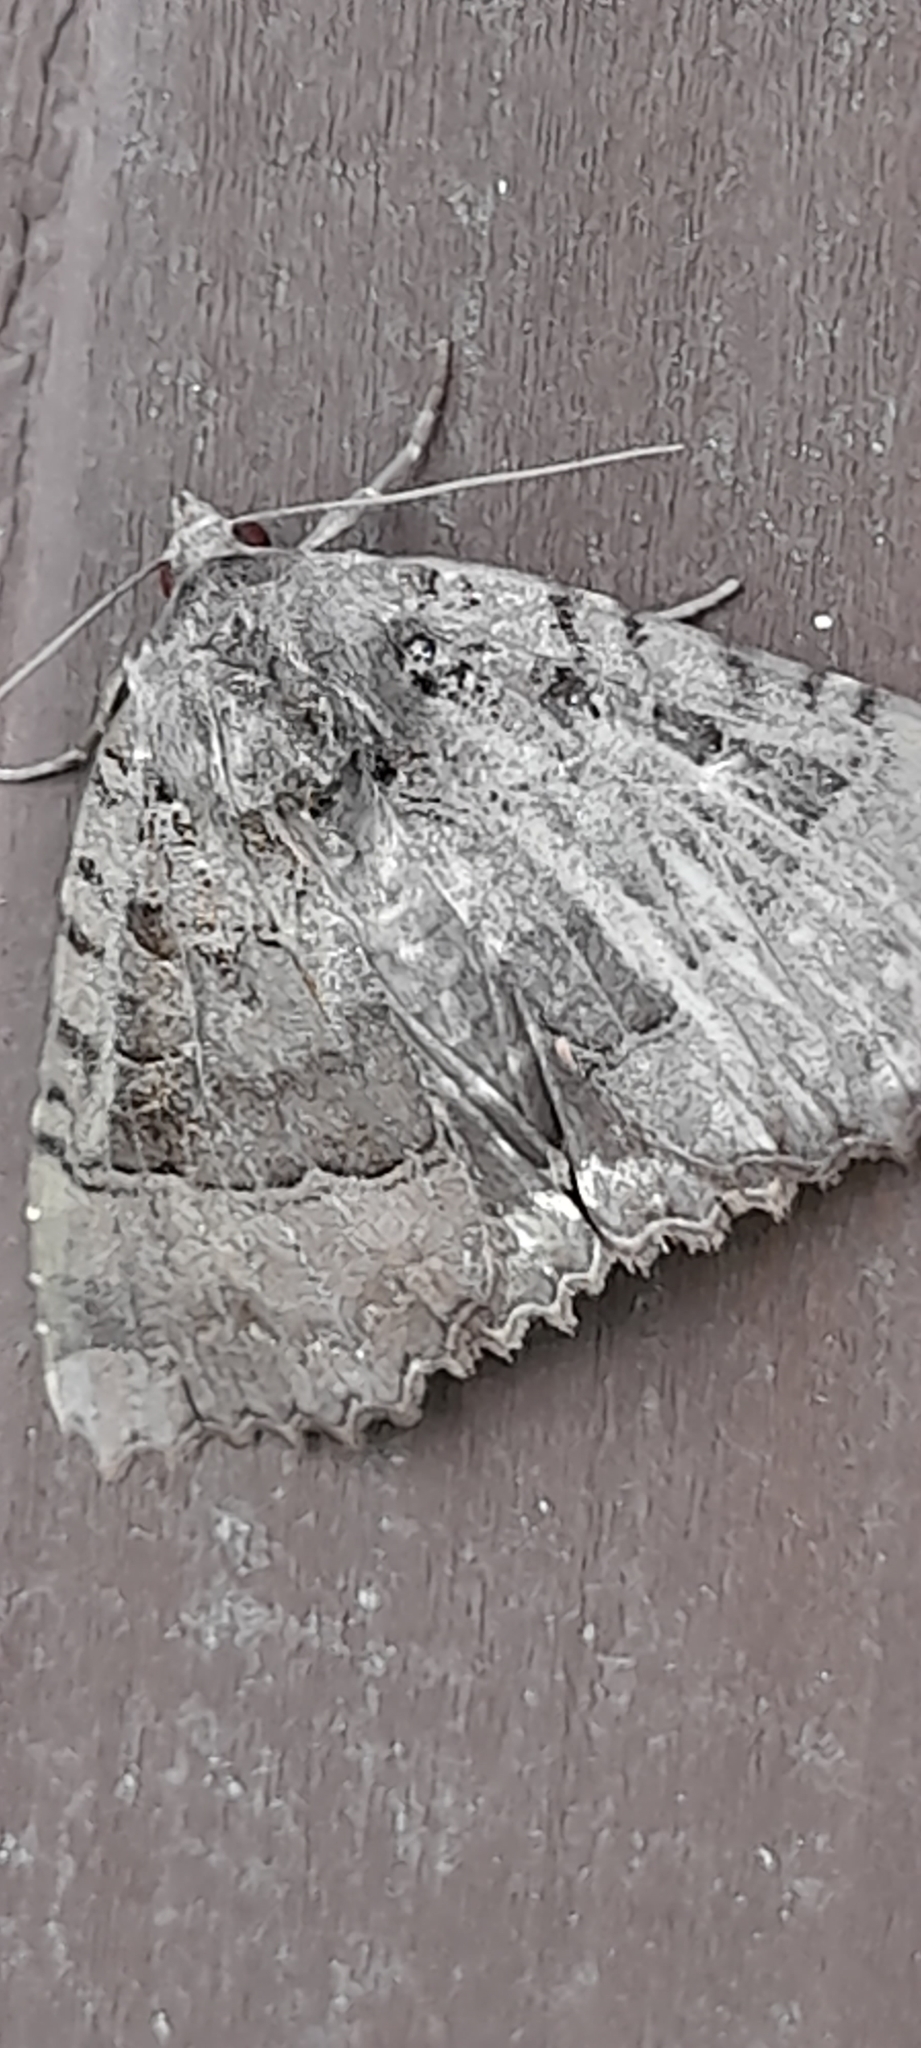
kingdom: Animalia
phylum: Arthropoda
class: Insecta
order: Lepidoptera
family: Noctuidae
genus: Mormo
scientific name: Mormo maura
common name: Old lady
